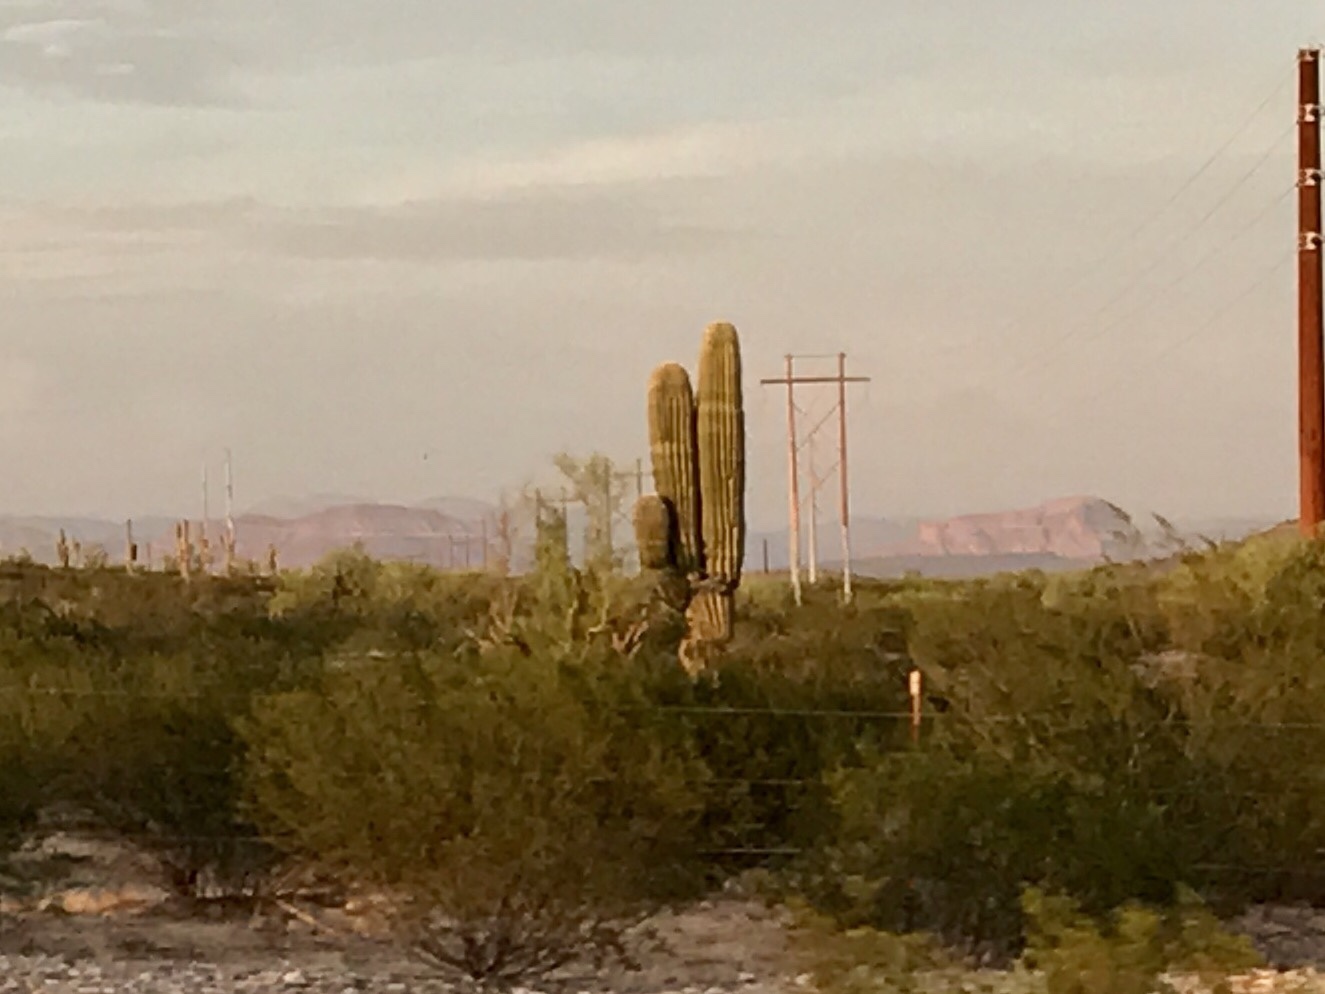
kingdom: Plantae
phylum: Tracheophyta
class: Magnoliopsida
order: Caryophyllales
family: Cactaceae
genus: Carnegiea
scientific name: Carnegiea gigantea
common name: Saguaro
